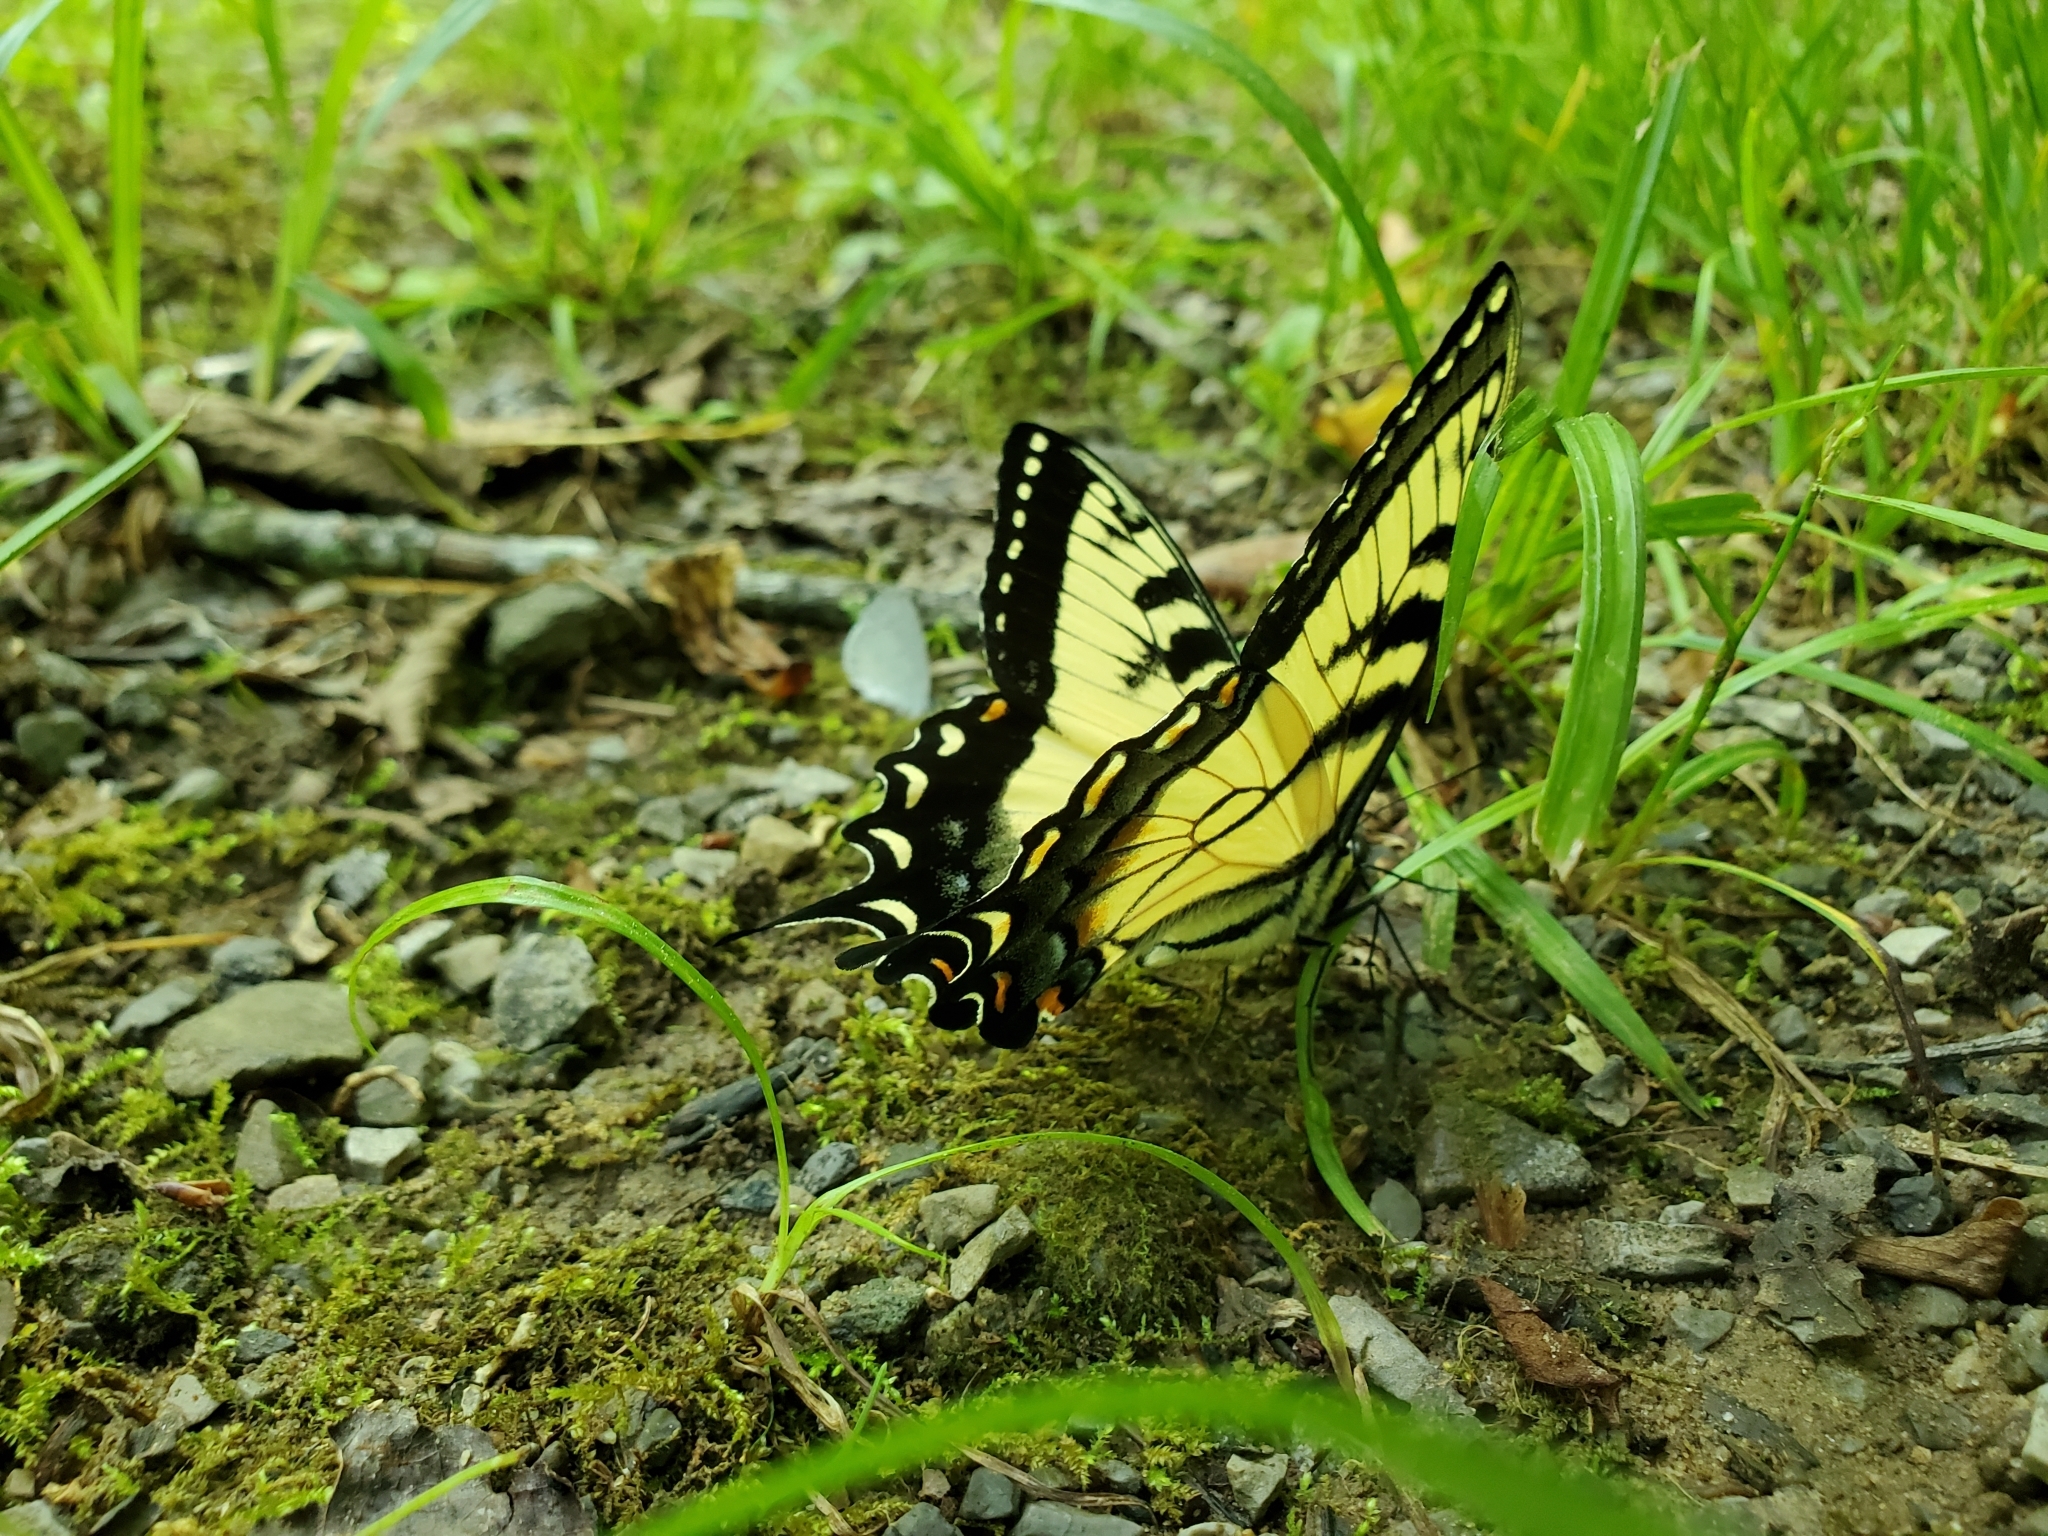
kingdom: Animalia
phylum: Arthropoda
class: Insecta
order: Lepidoptera
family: Papilionidae
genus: Papilio
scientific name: Papilio glaucus
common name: Tiger swallowtail
